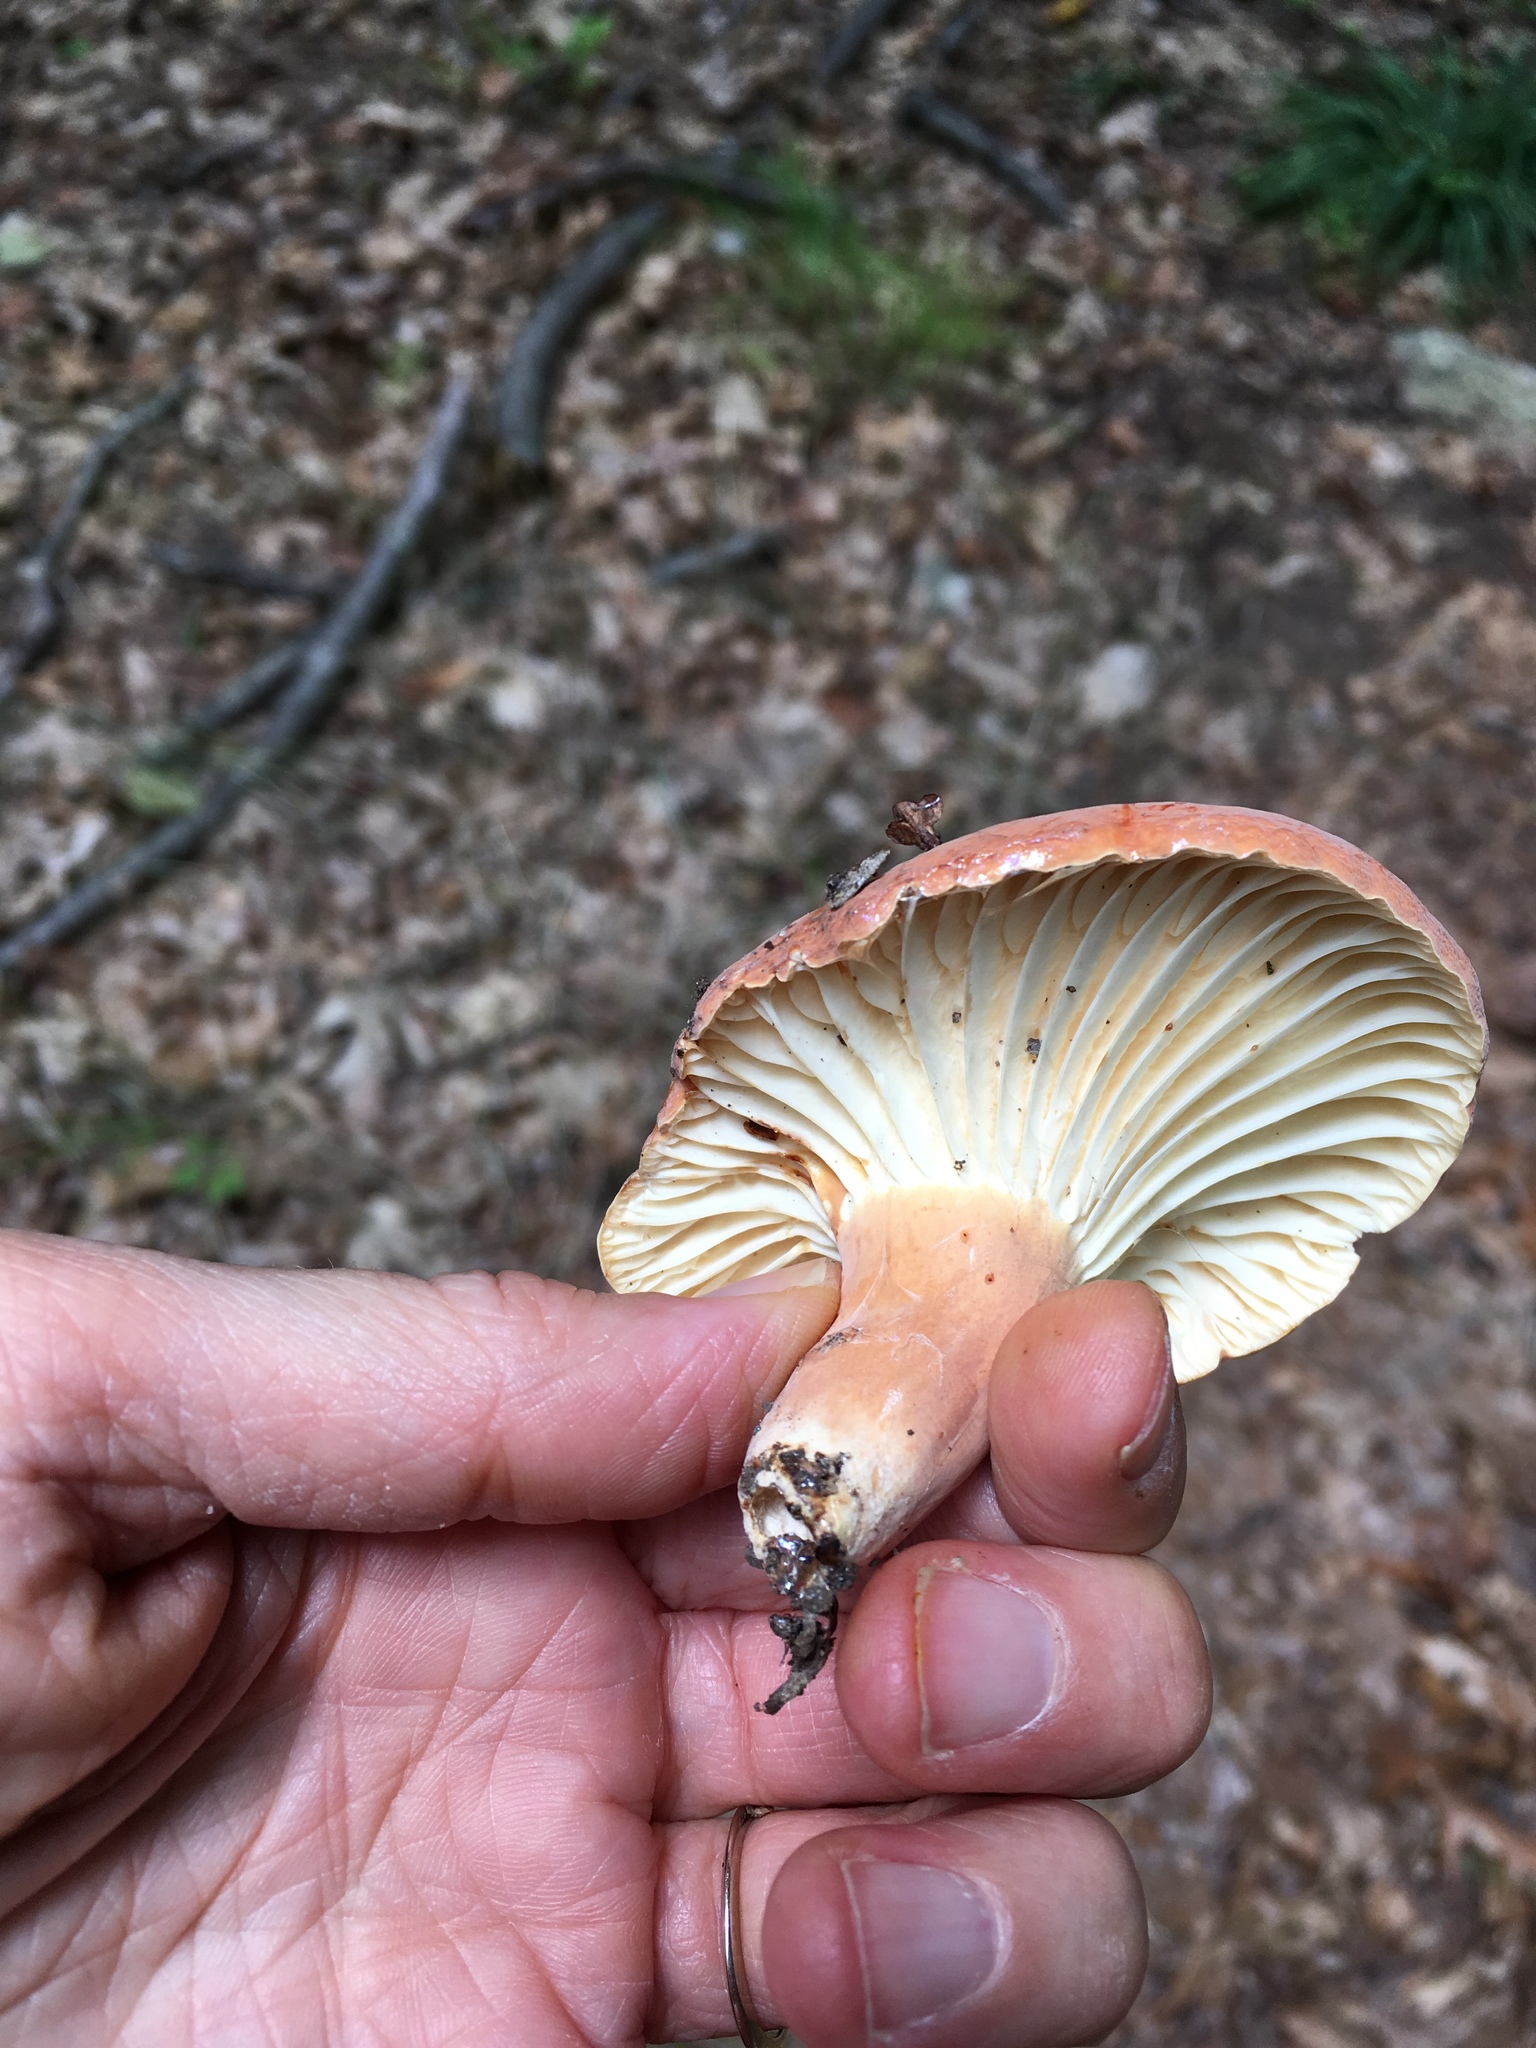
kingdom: Fungi
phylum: Basidiomycota
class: Agaricomycetes
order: Russulales
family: Russulaceae
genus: Lactarius
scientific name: Lactarius hygrophoroides
